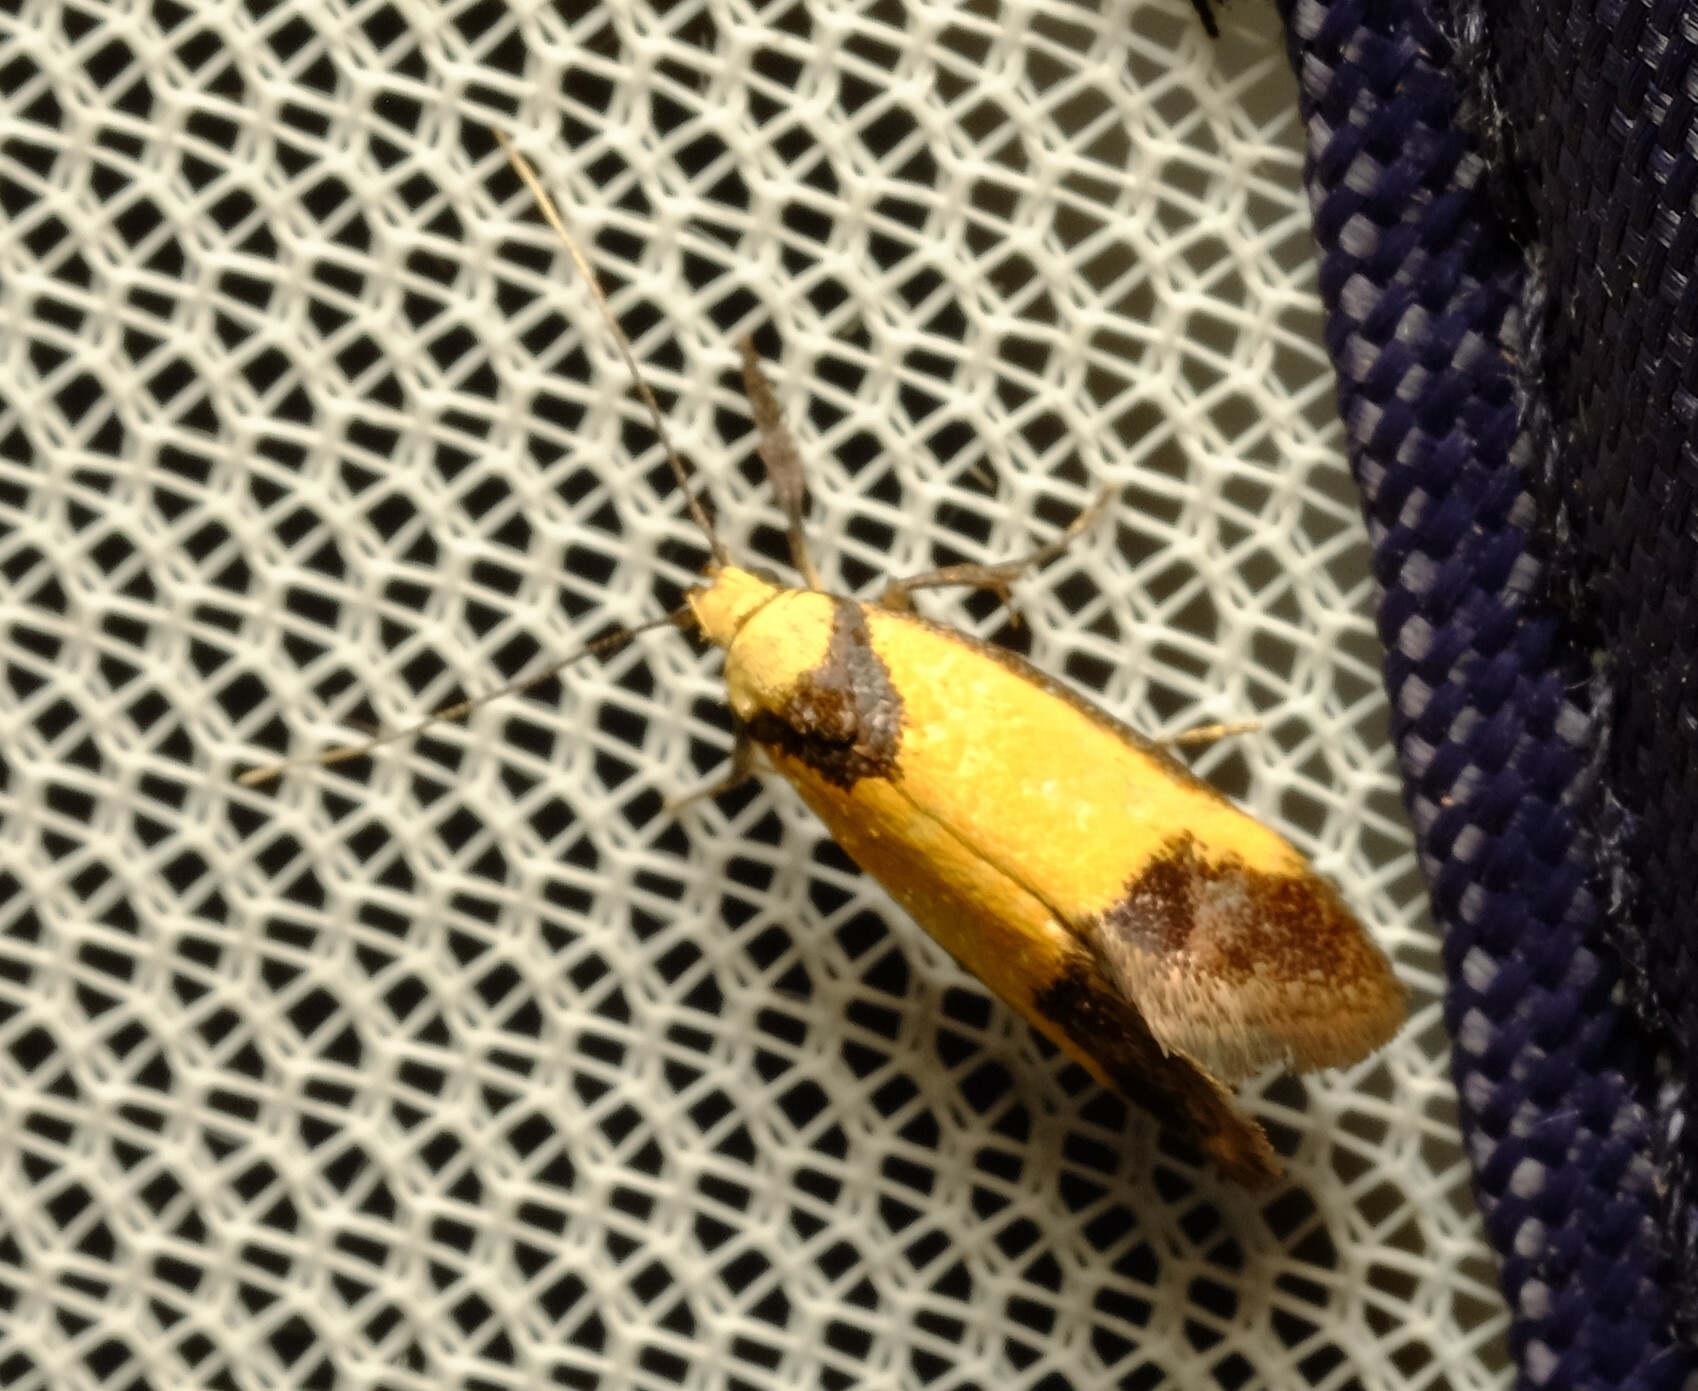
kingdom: Animalia
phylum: Arthropoda
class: Insecta
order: Lepidoptera
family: Oecophoridae
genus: Crepidosceles
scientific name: Crepidosceles exanthema
